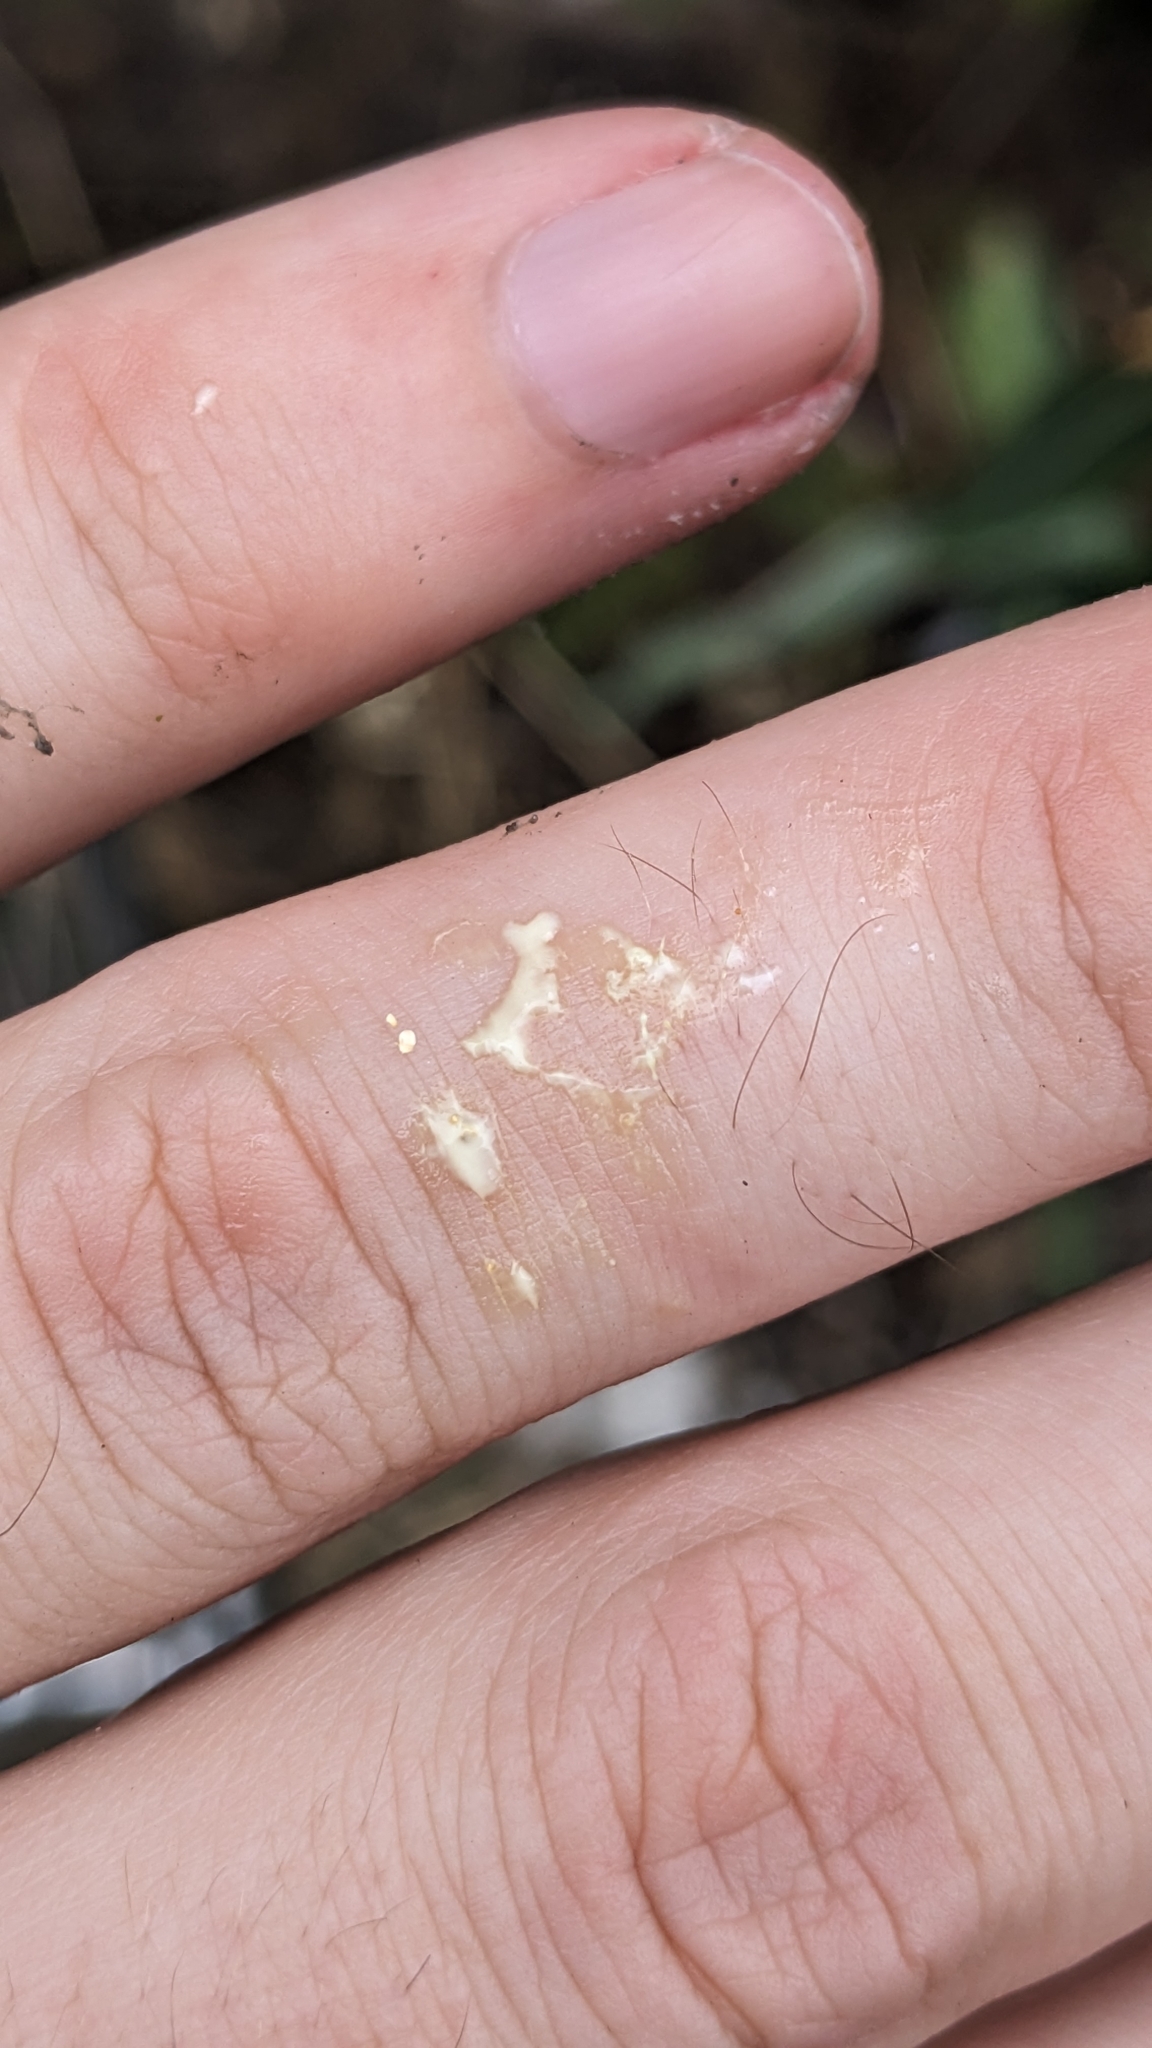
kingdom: Plantae
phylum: Tracheophyta
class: Magnoliopsida
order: Asterales
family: Asteraceae
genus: Lactuca
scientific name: Lactuca virosa
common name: Great lettuce
